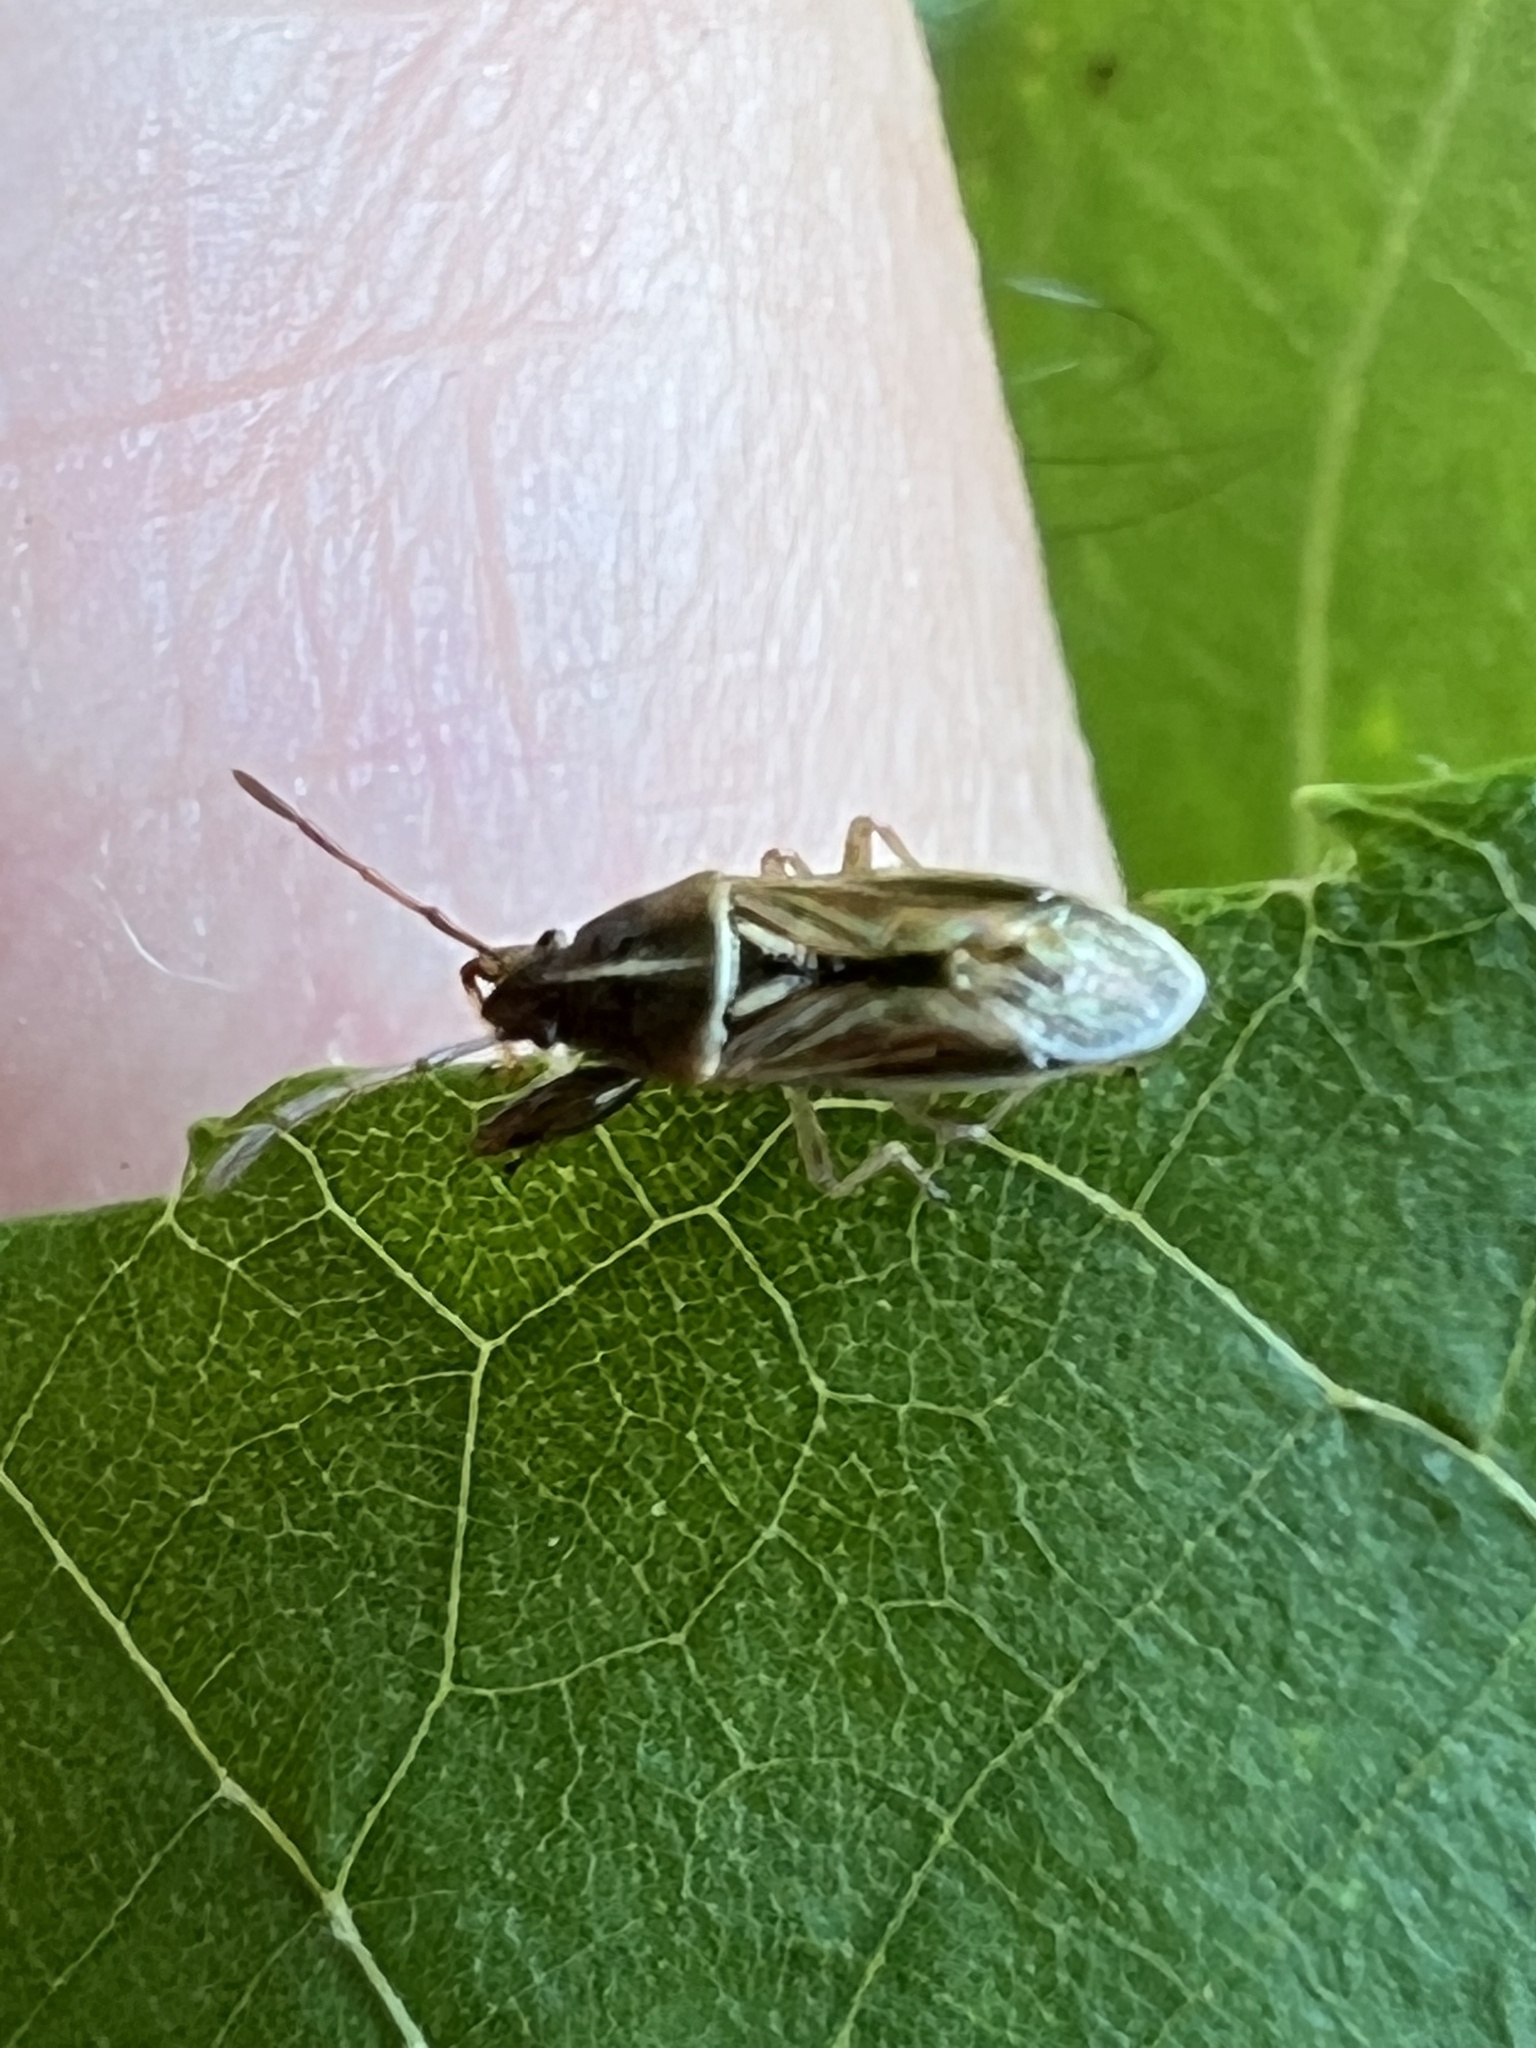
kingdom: Animalia
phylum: Arthropoda
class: Insecta
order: Hemiptera
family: Pachygronthidae
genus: Oedancala
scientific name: Oedancala dorsalis
